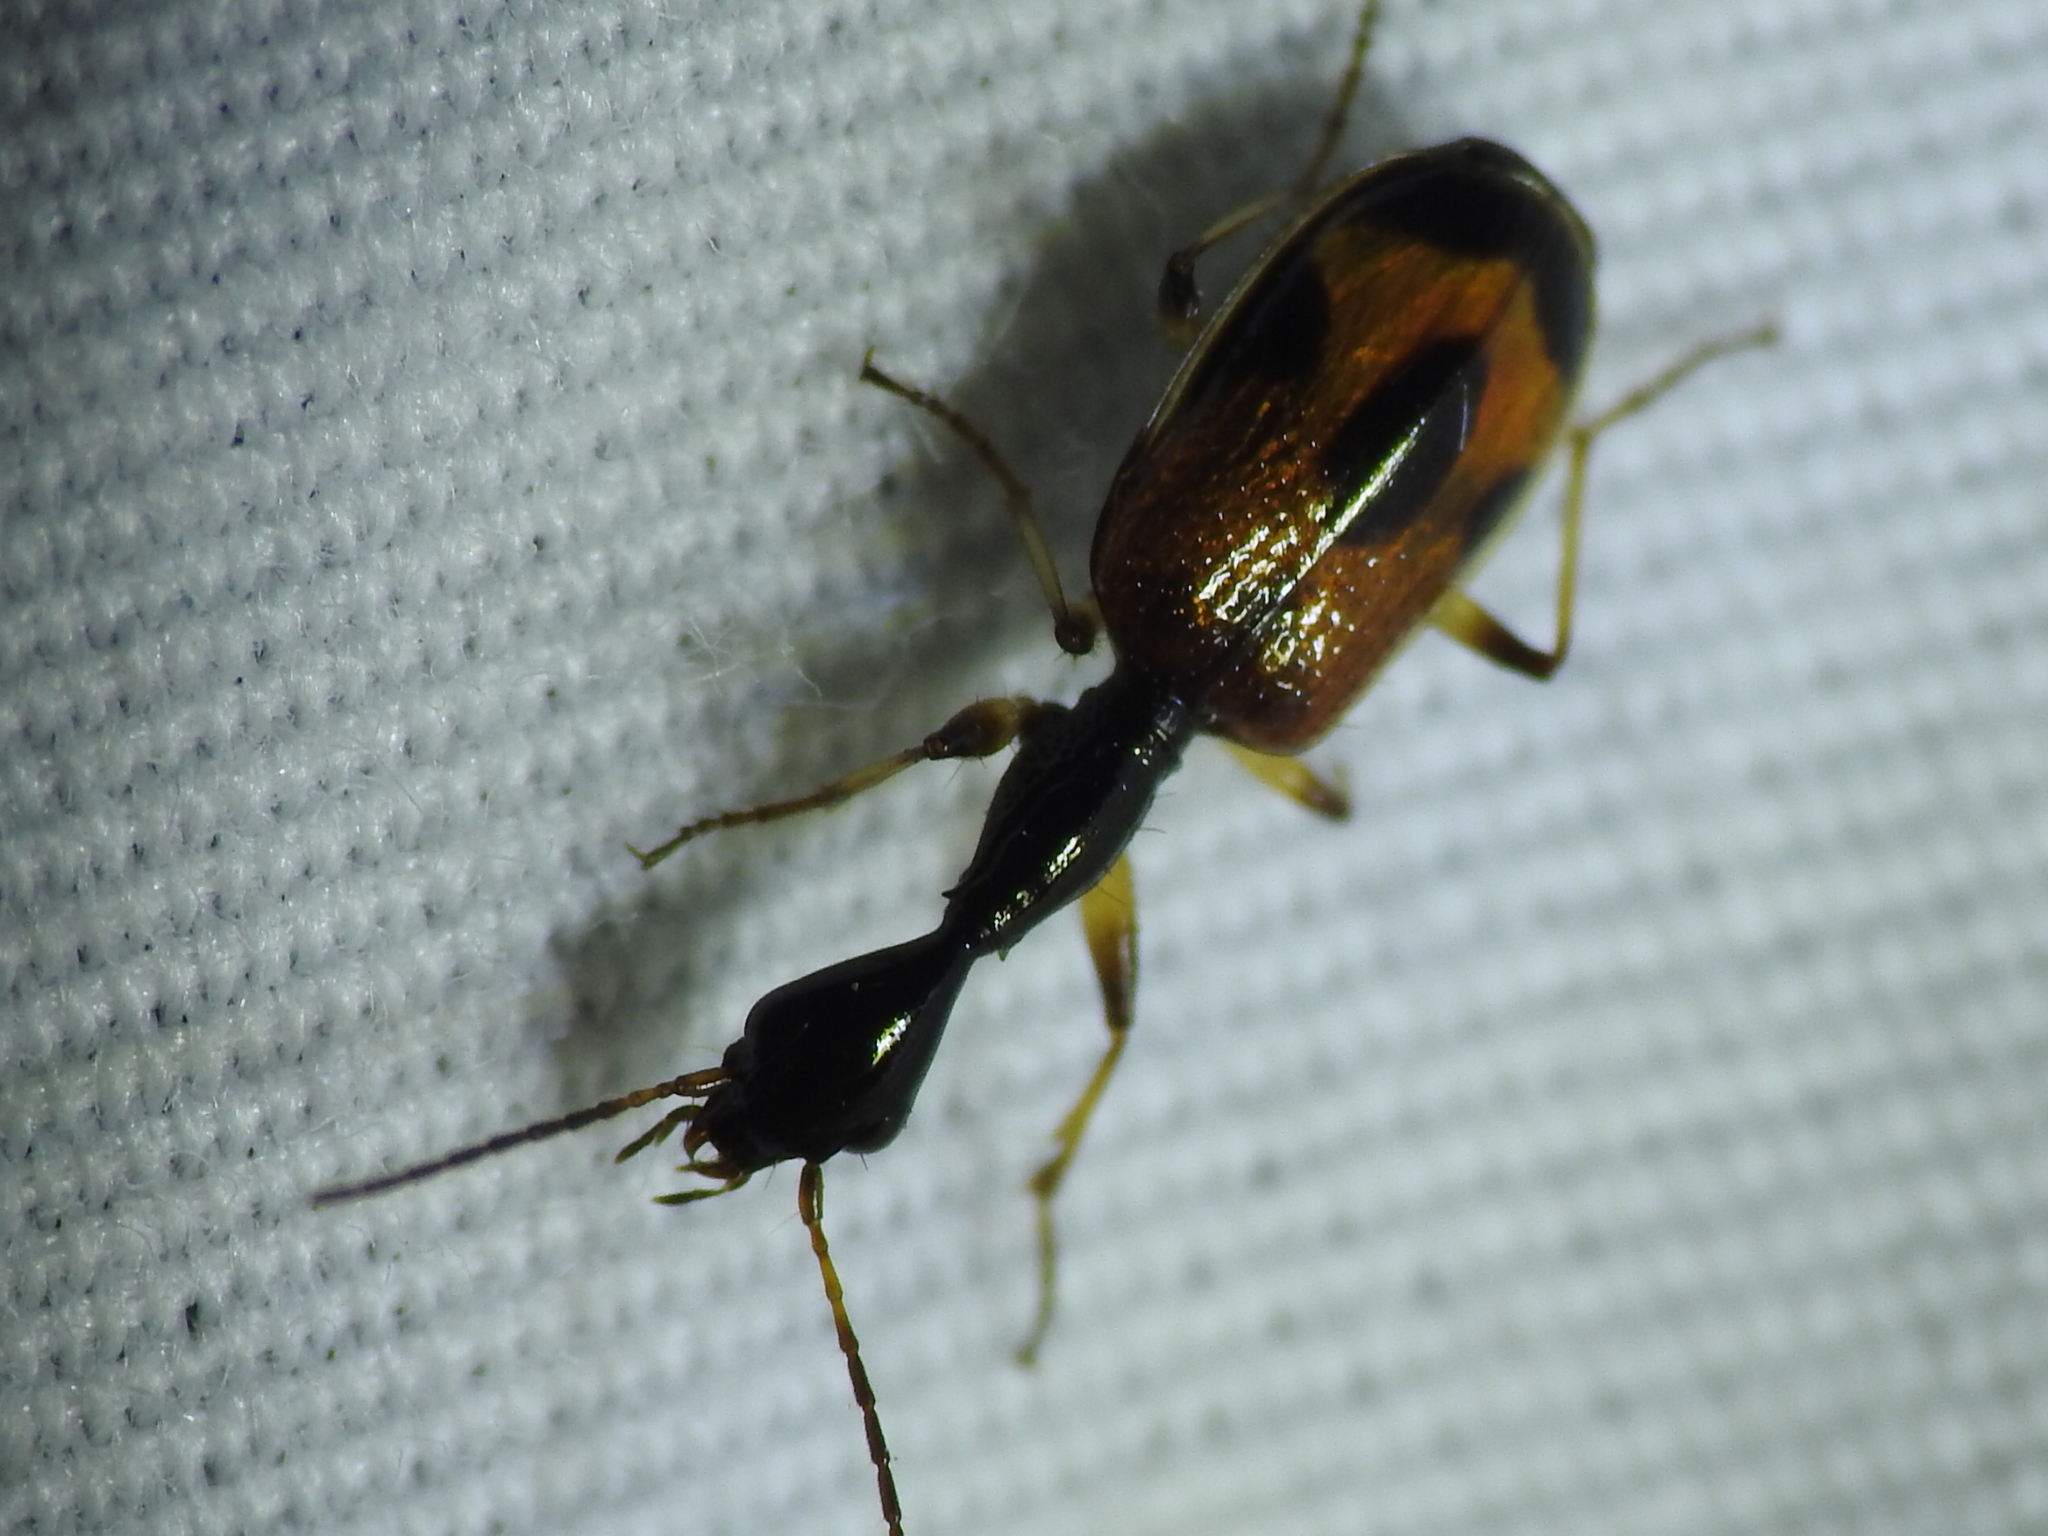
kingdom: Animalia
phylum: Arthropoda
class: Insecta
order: Coleoptera
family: Carabidae
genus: Colliuris
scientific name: Colliuris pensylvanica
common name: Long-necked ground beetle
